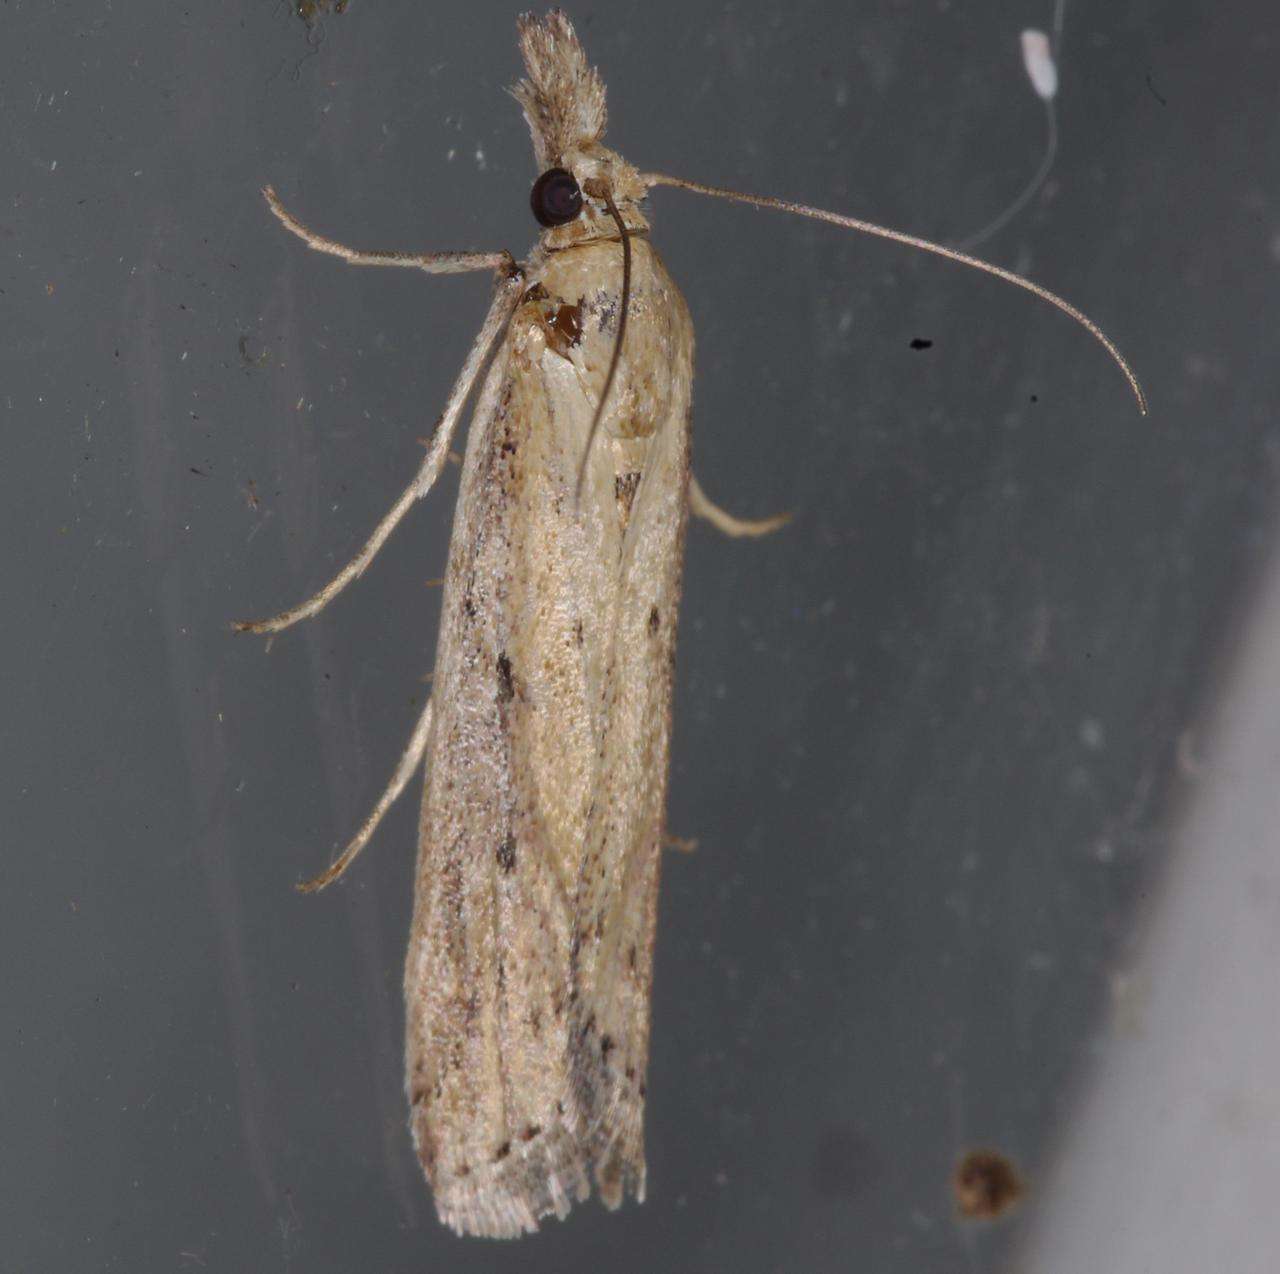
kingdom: Animalia
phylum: Arthropoda
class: Insecta
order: Lepidoptera
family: Pyralidae
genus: Faveria
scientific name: Faveria tritalis
